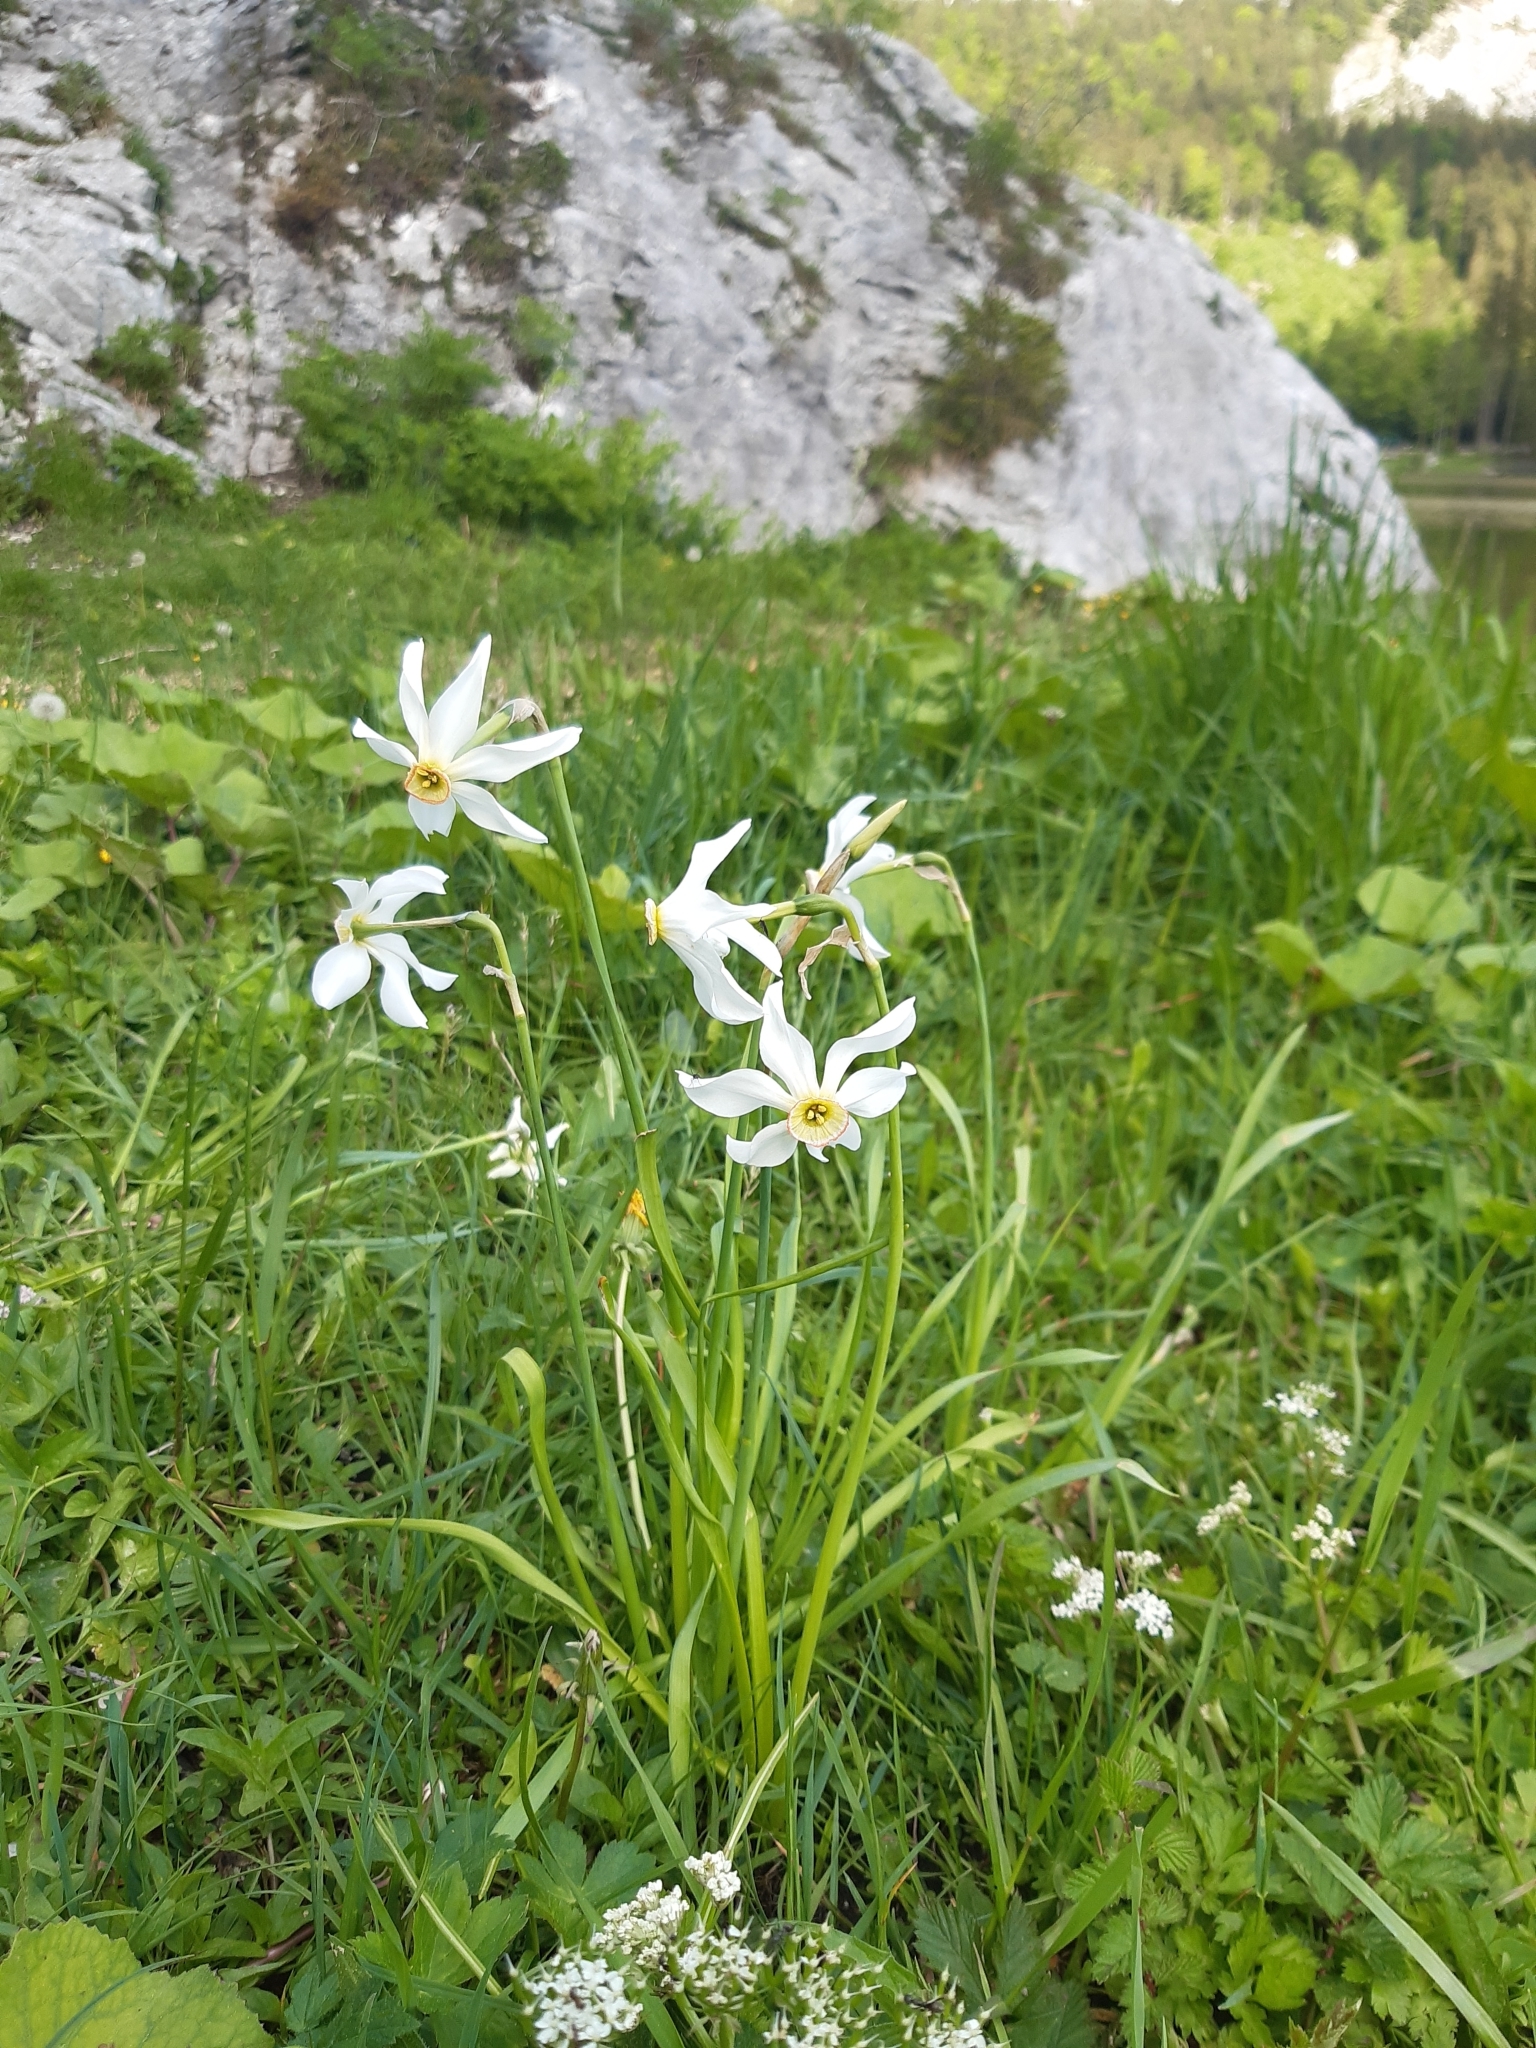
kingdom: Plantae
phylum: Tracheophyta
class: Liliopsida
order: Asparagales
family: Amaryllidaceae
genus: Narcissus
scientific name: Narcissus poeticus
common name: Pheasant's-eye daffodil
